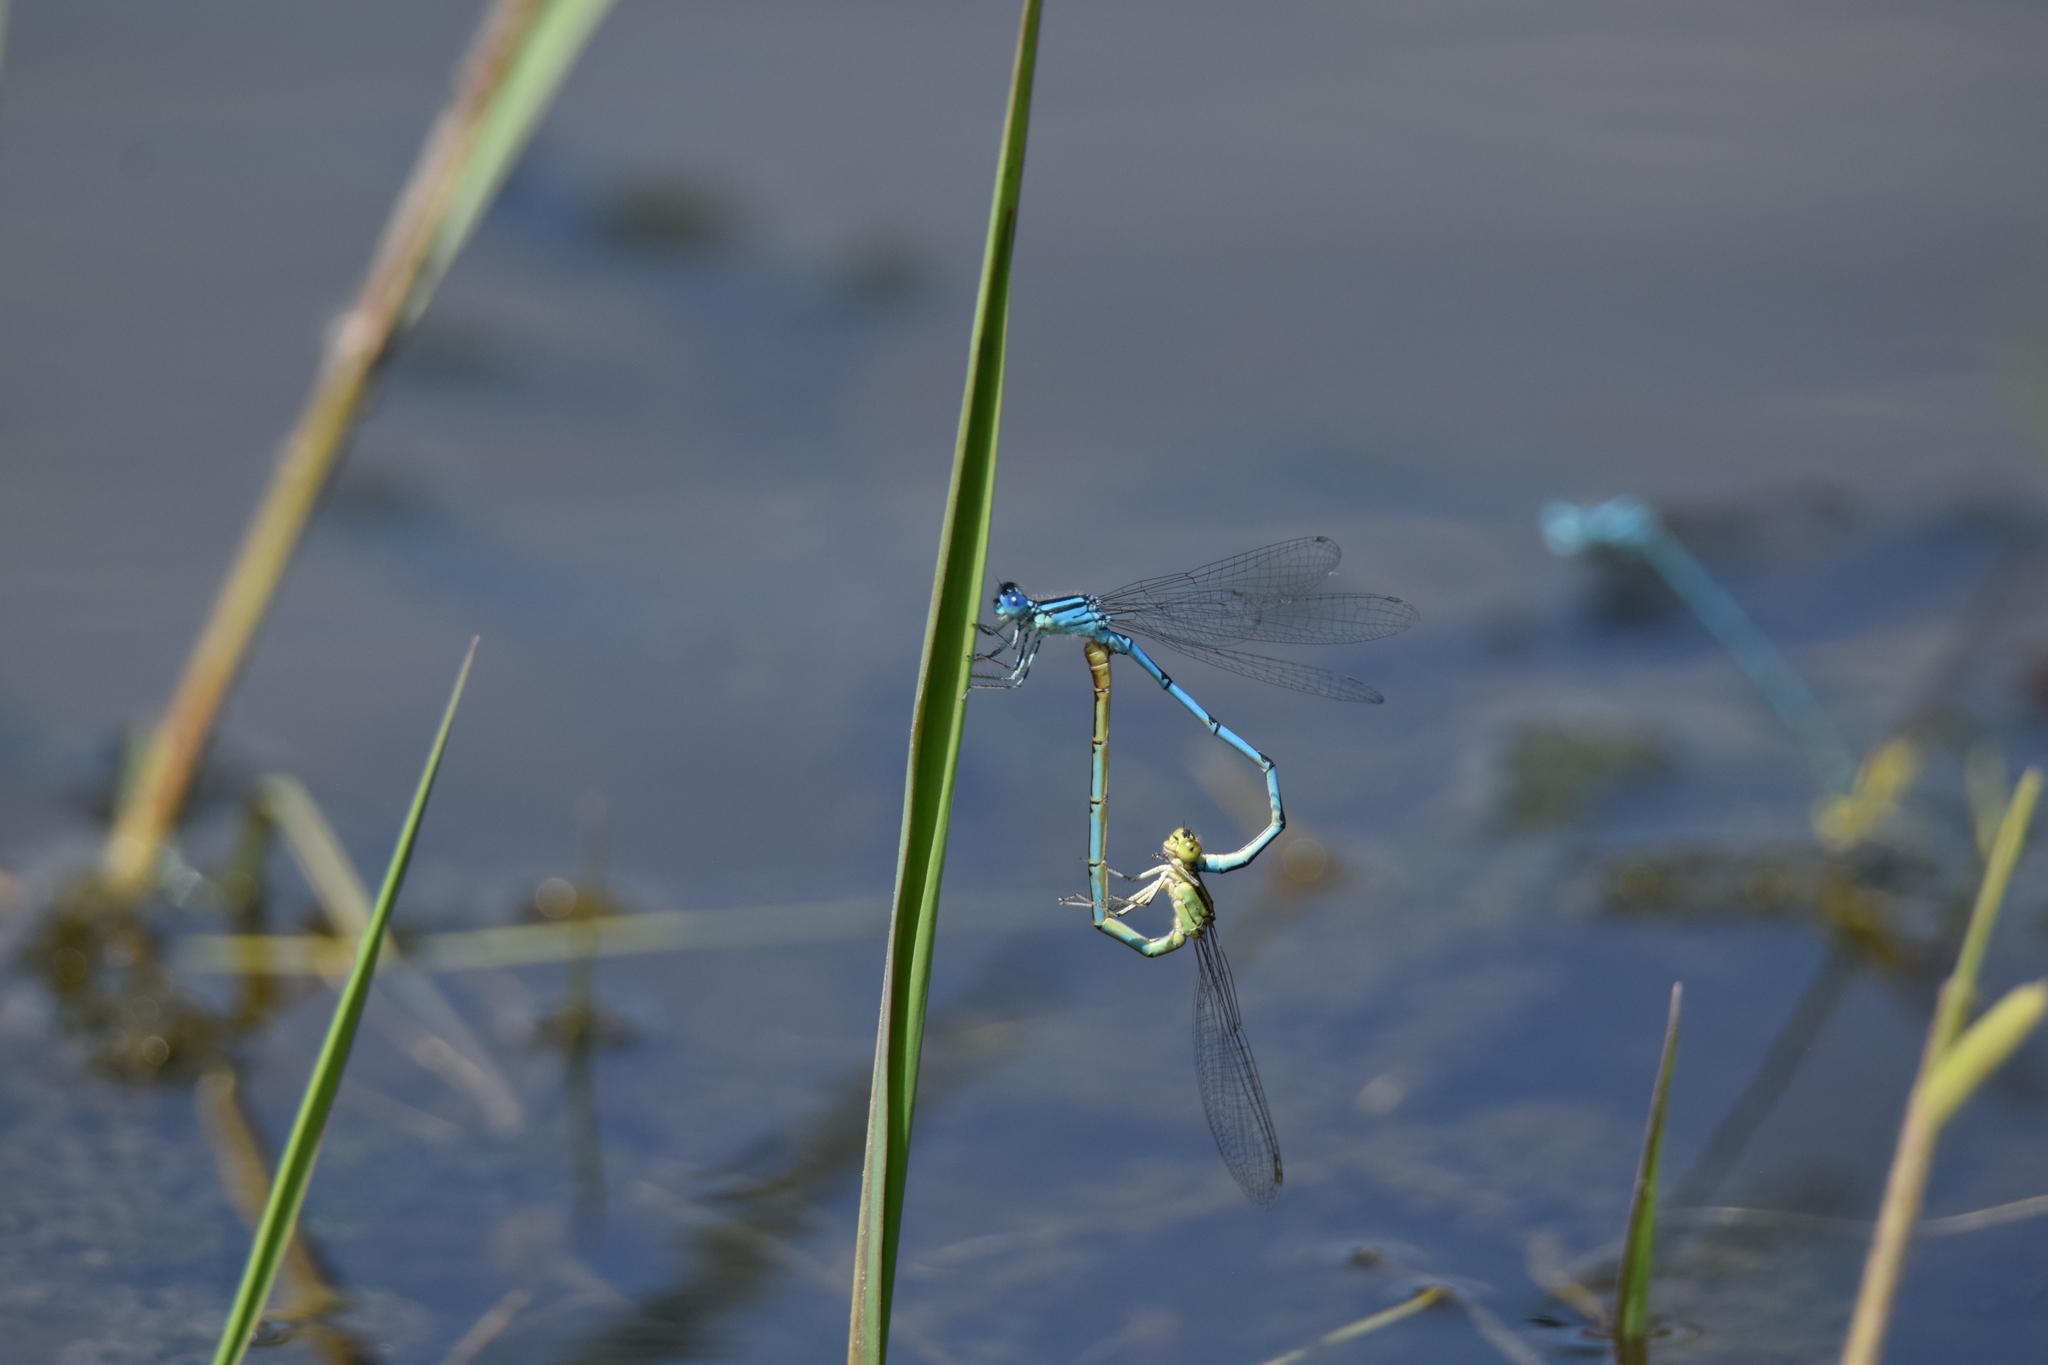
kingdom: Animalia
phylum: Arthropoda
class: Insecta
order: Odonata
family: Coenagrionidae
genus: Erythromma
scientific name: Erythromma lindenii
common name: Blue-eye
